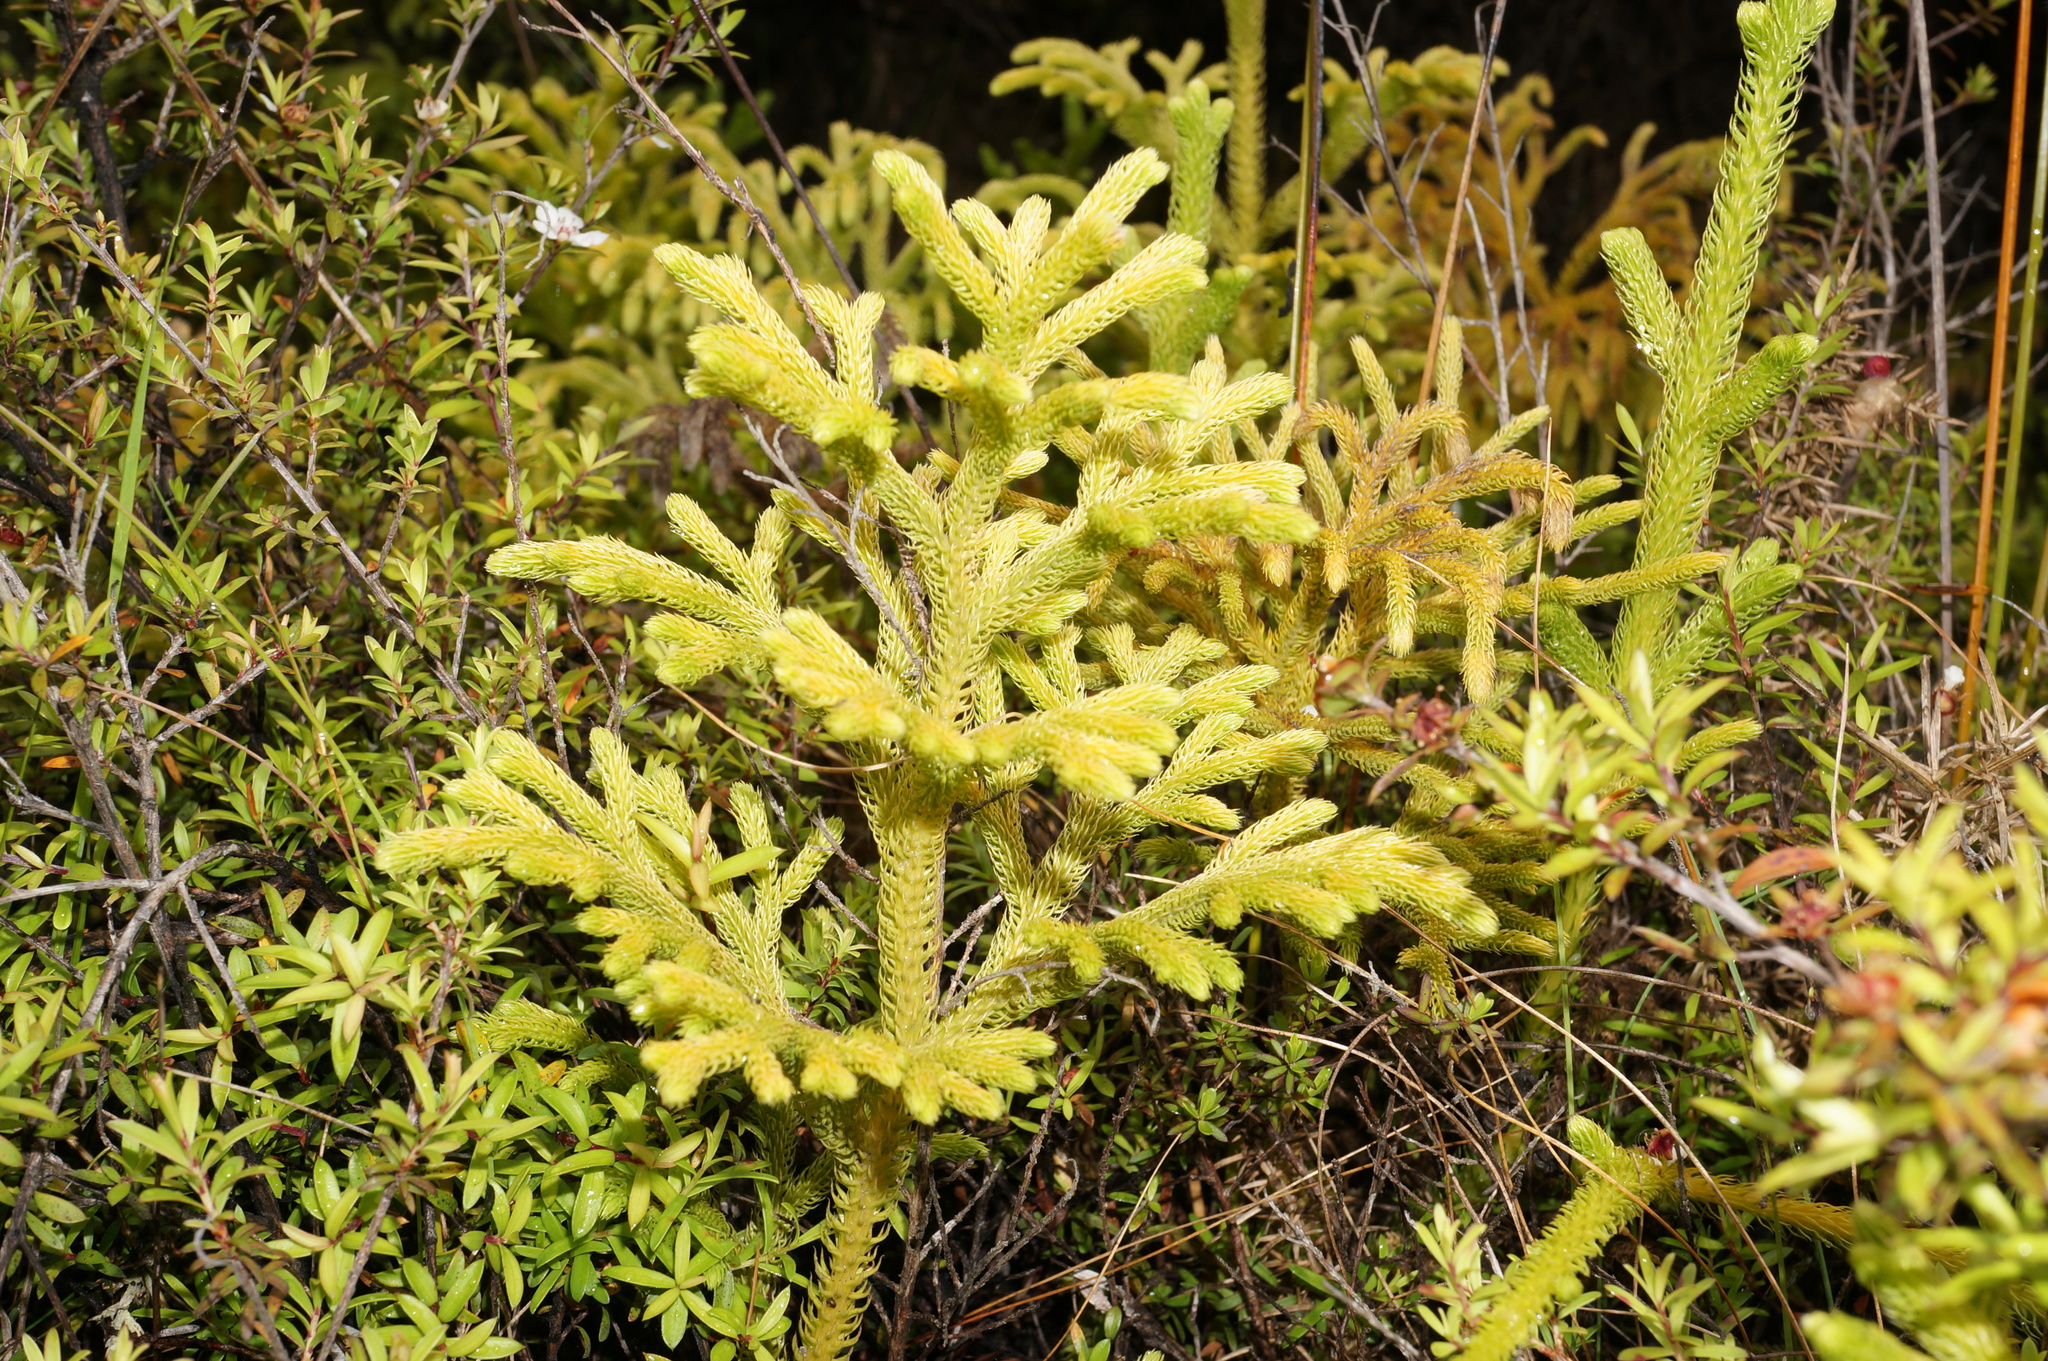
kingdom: Plantae
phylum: Tracheophyta
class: Lycopodiopsida
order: Lycopodiales
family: Lycopodiaceae
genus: Palhinhaea
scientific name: Palhinhaea cernua
